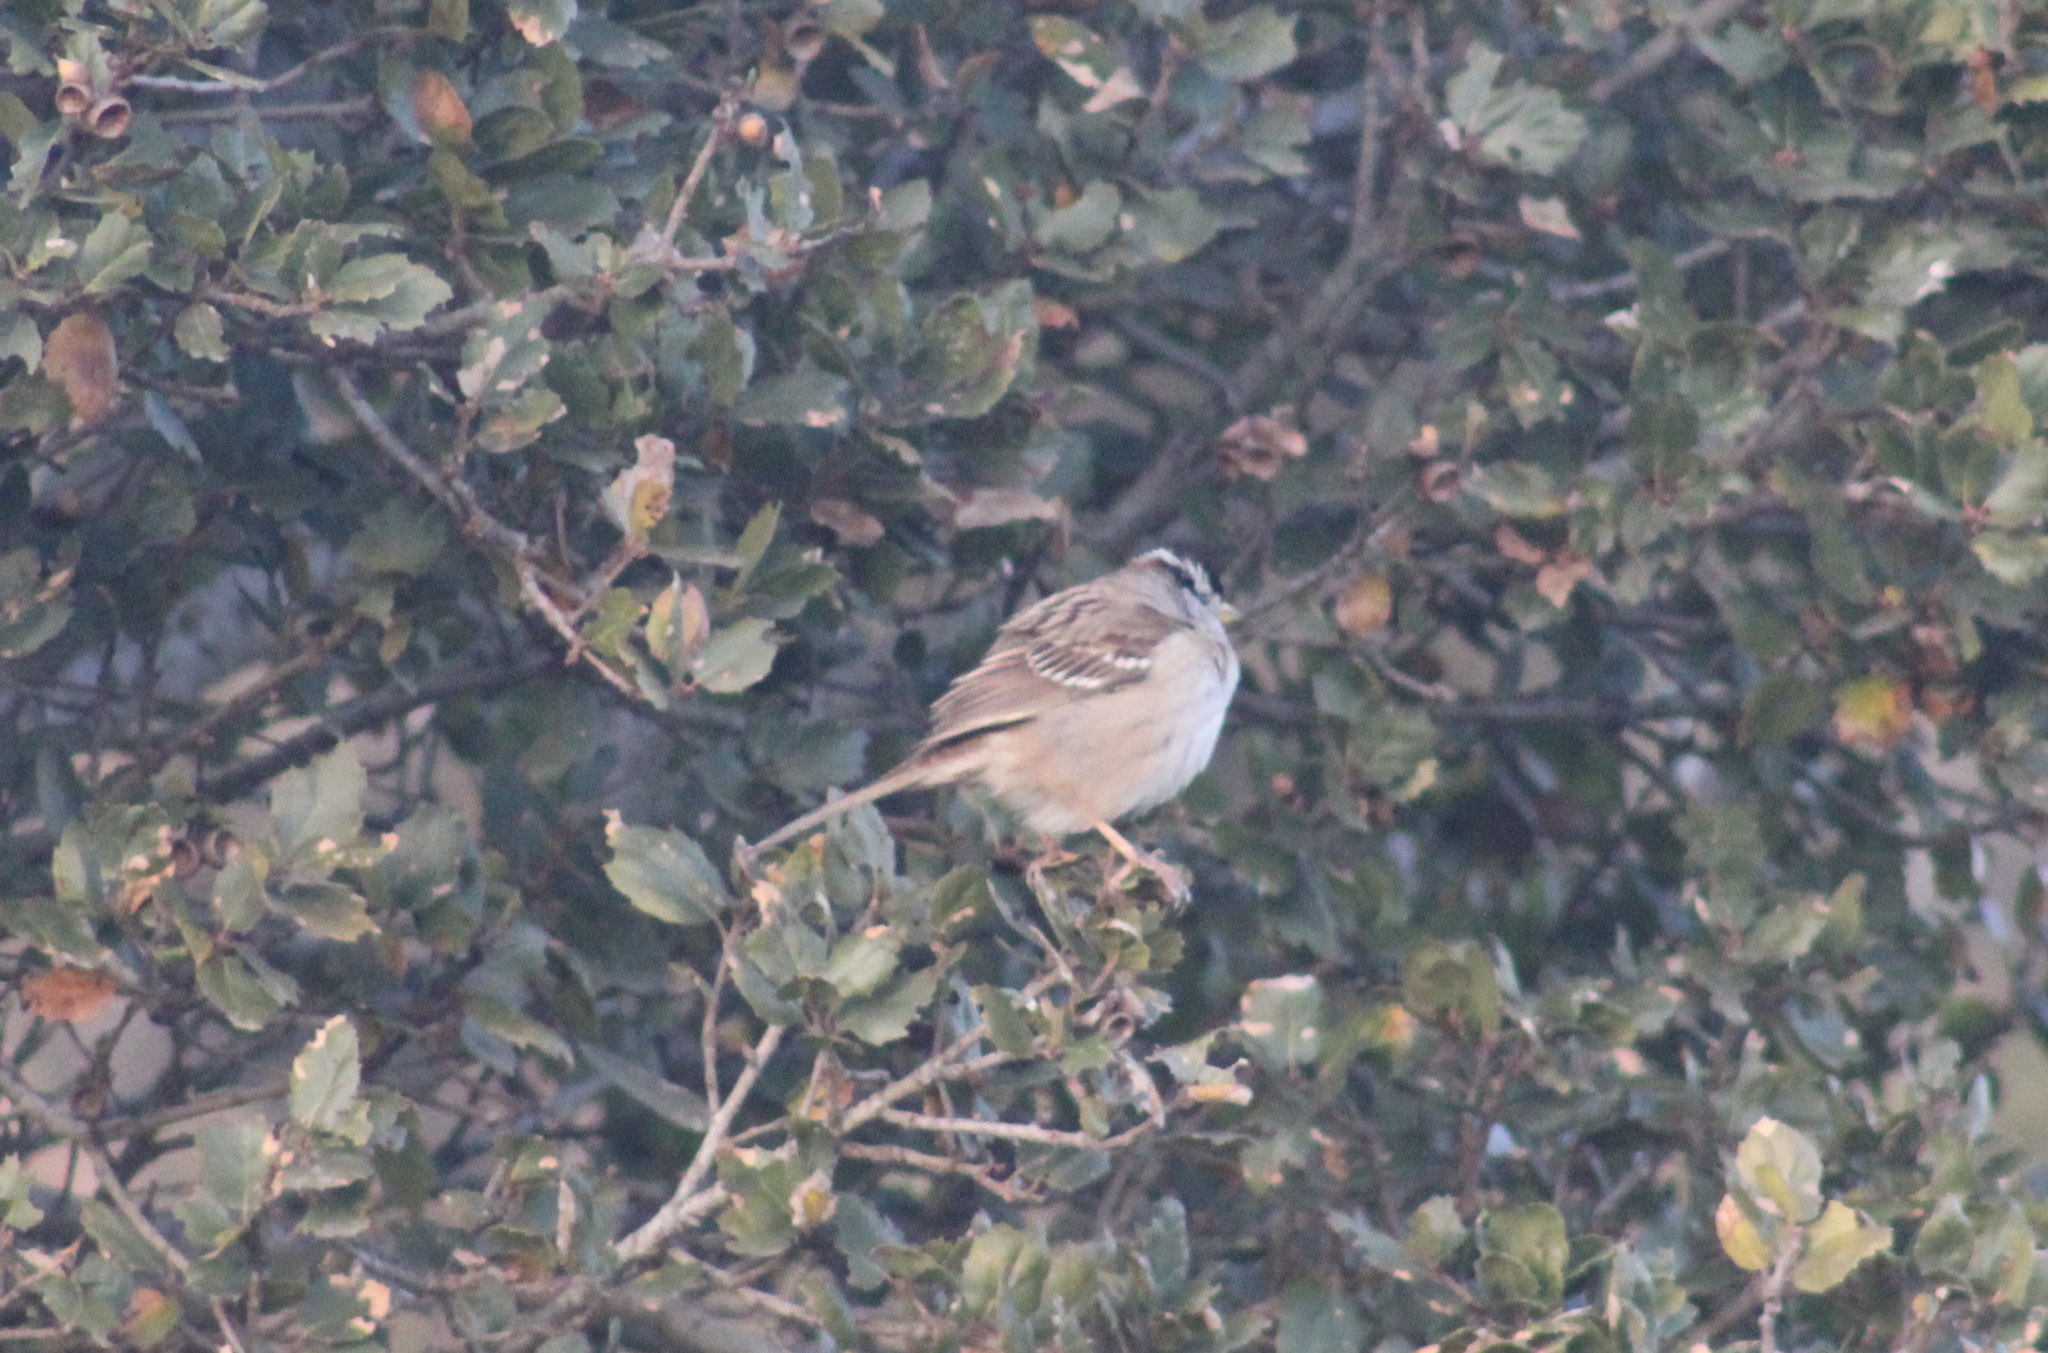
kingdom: Animalia
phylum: Chordata
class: Aves
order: Passeriformes
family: Passerellidae
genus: Zonotrichia
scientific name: Zonotrichia leucophrys
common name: White-crowned sparrow
